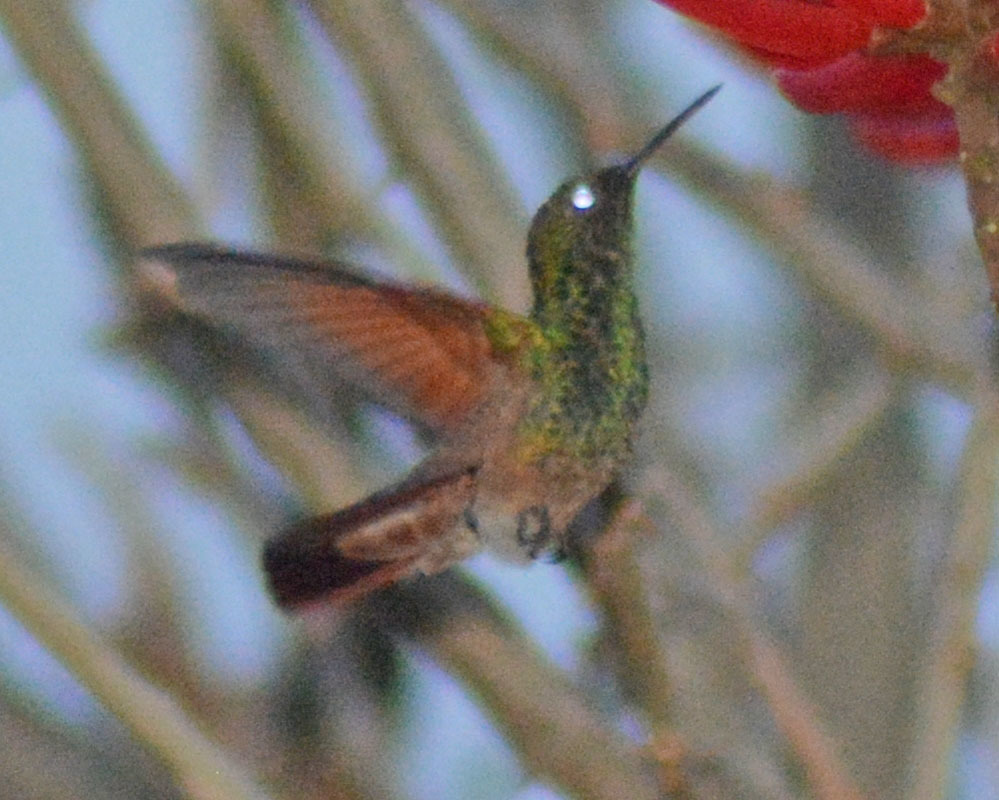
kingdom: Animalia
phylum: Chordata
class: Aves
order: Apodiformes
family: Trochilidae
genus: Saucerottia
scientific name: Saucerottia beryllina
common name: Berylline hummingbird
